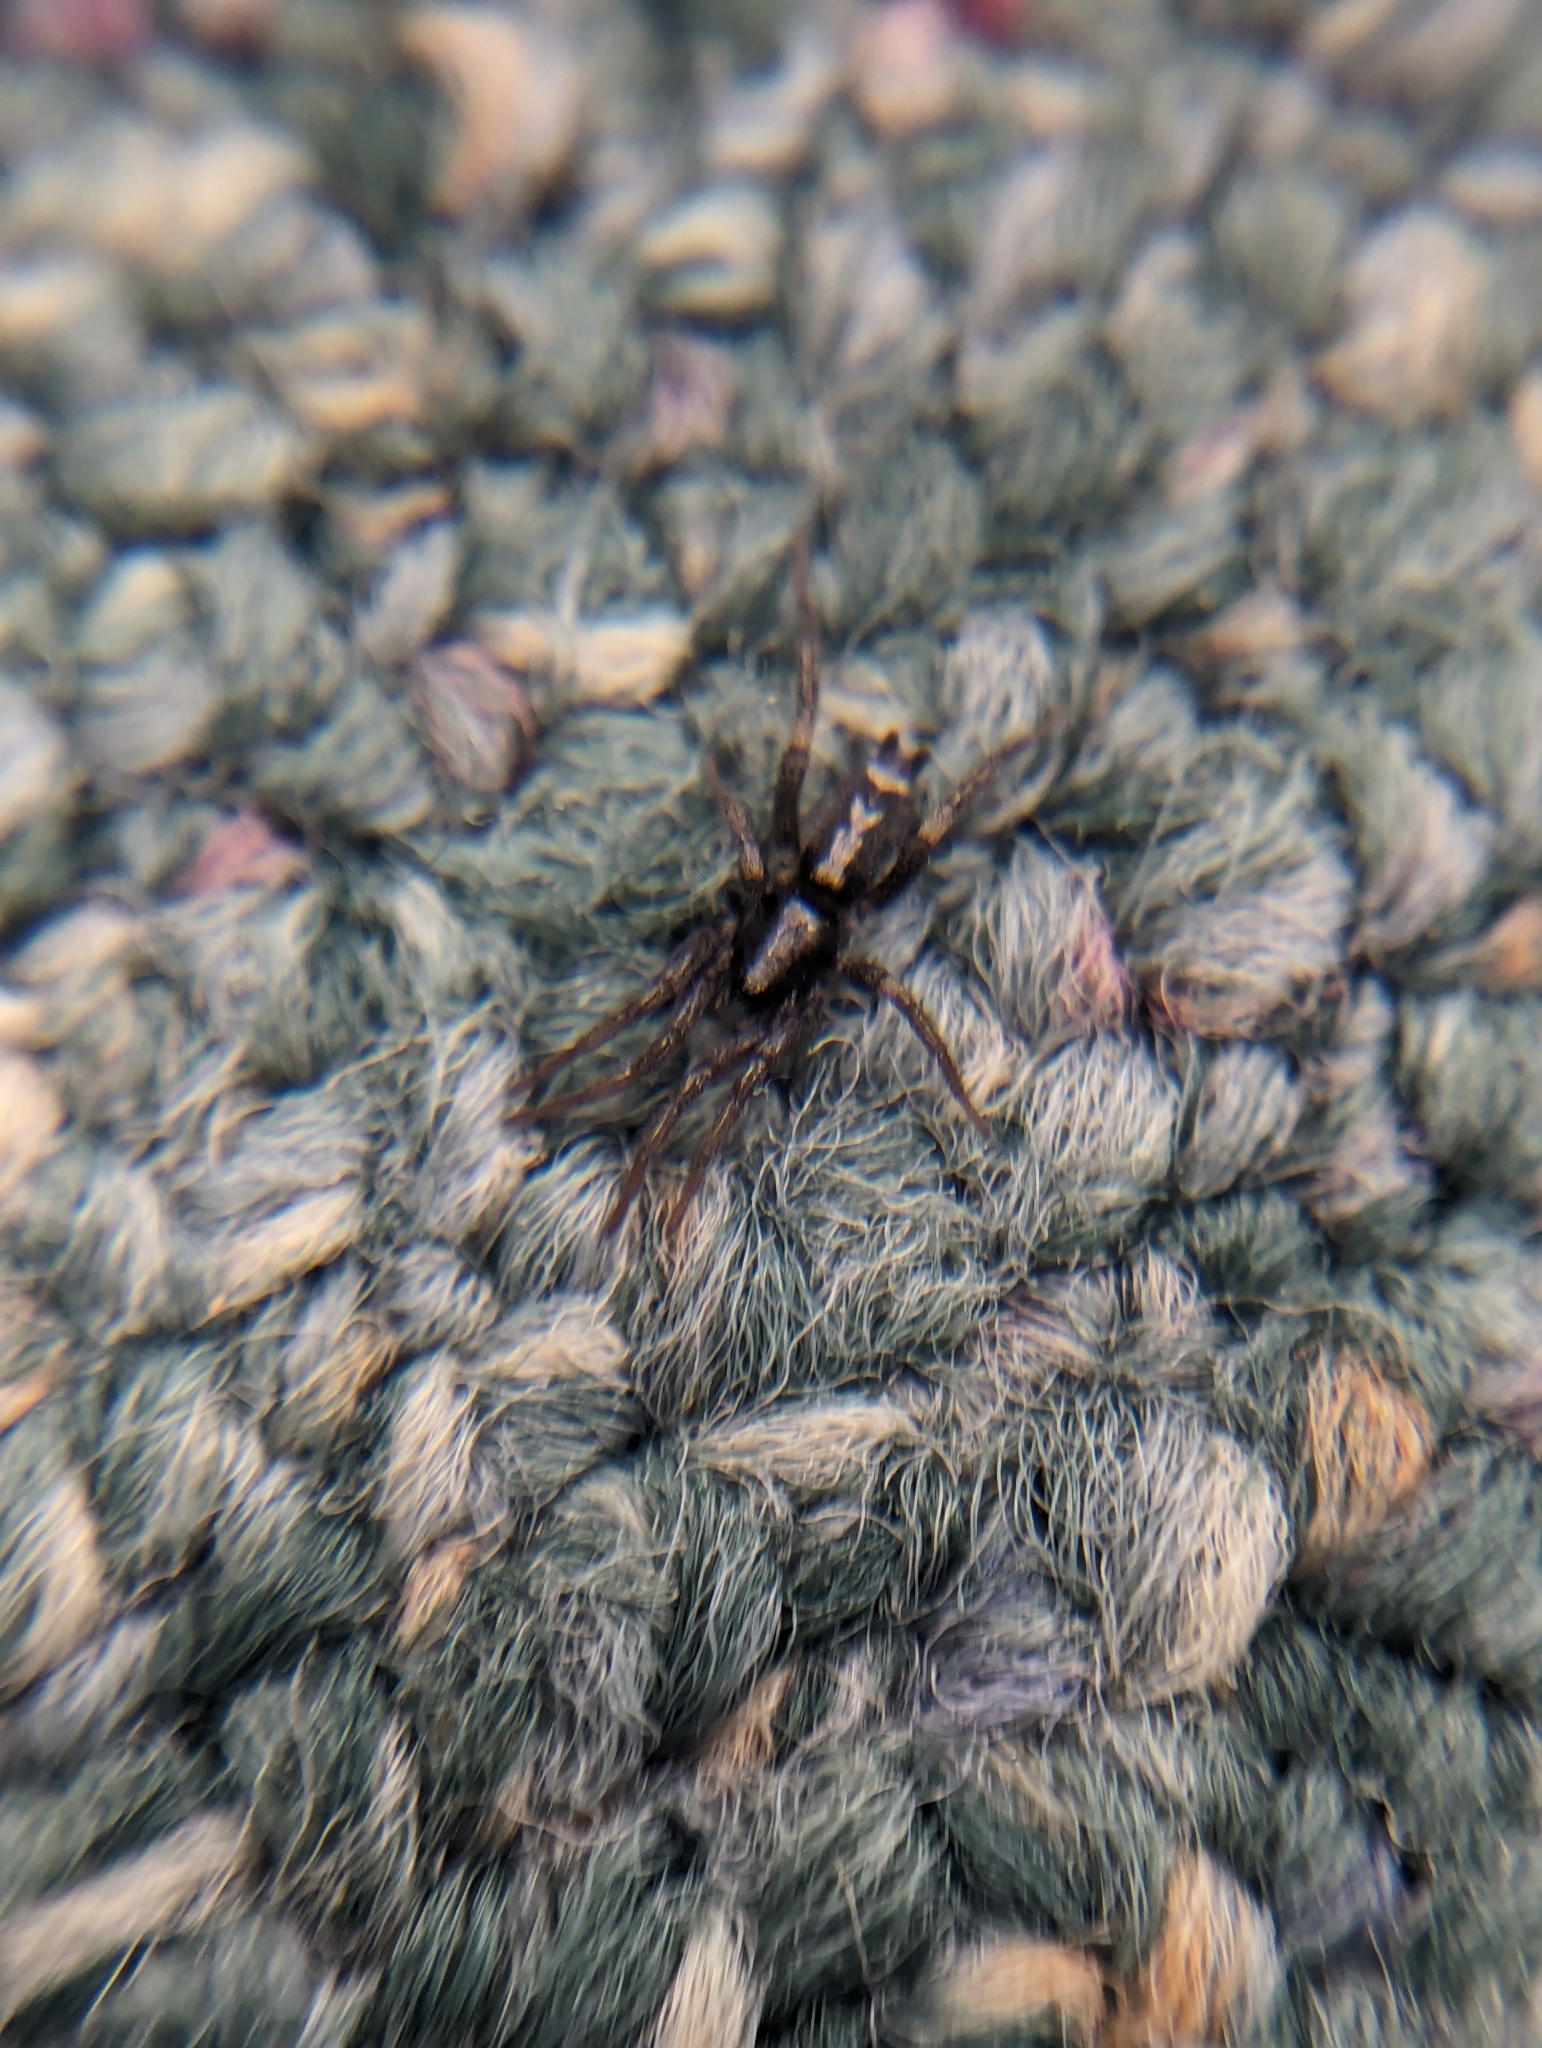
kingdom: Animalia
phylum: Arthropoda
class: Arachnida
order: Araneae
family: Gnaphosidae
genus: Herpyllus
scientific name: Herpyllus ecclesiasticus
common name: Eastern parson spider
